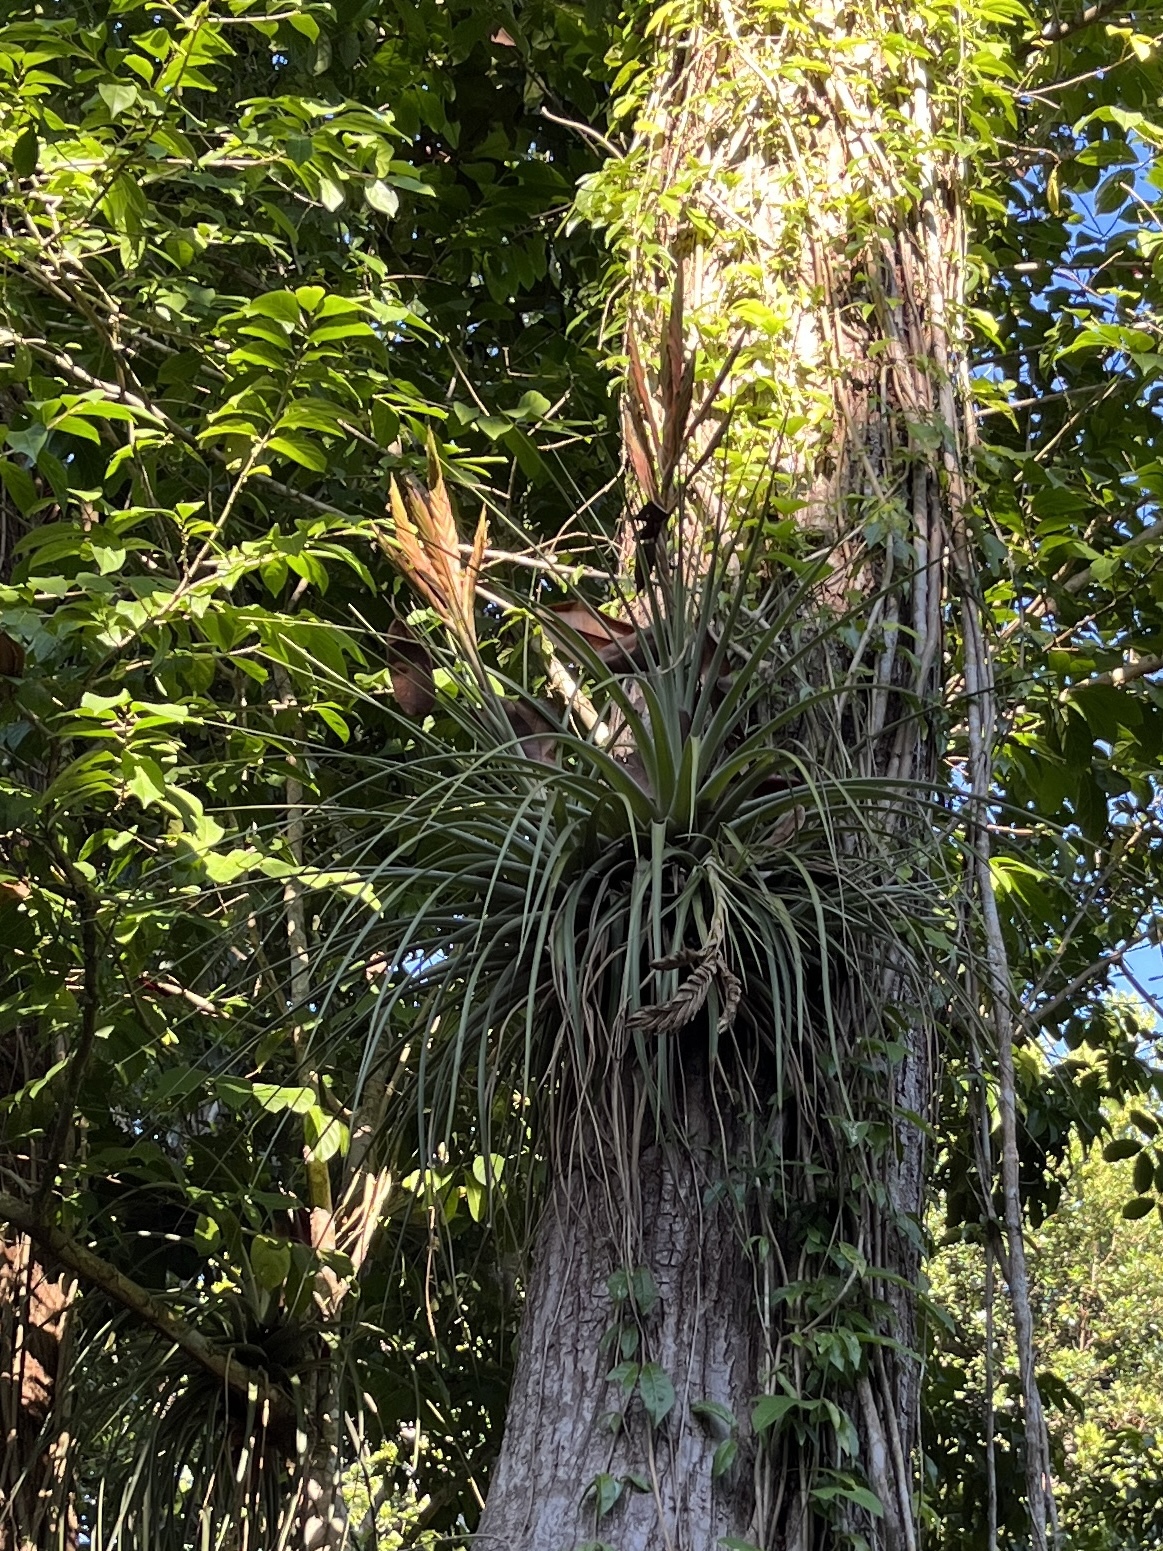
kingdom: Plantae
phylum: Tracheophyta
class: Liliopsida
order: Poales
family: Bromeliaceae
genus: Tillandsia
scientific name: Tillandsia fasciculata
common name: Giant airplant
